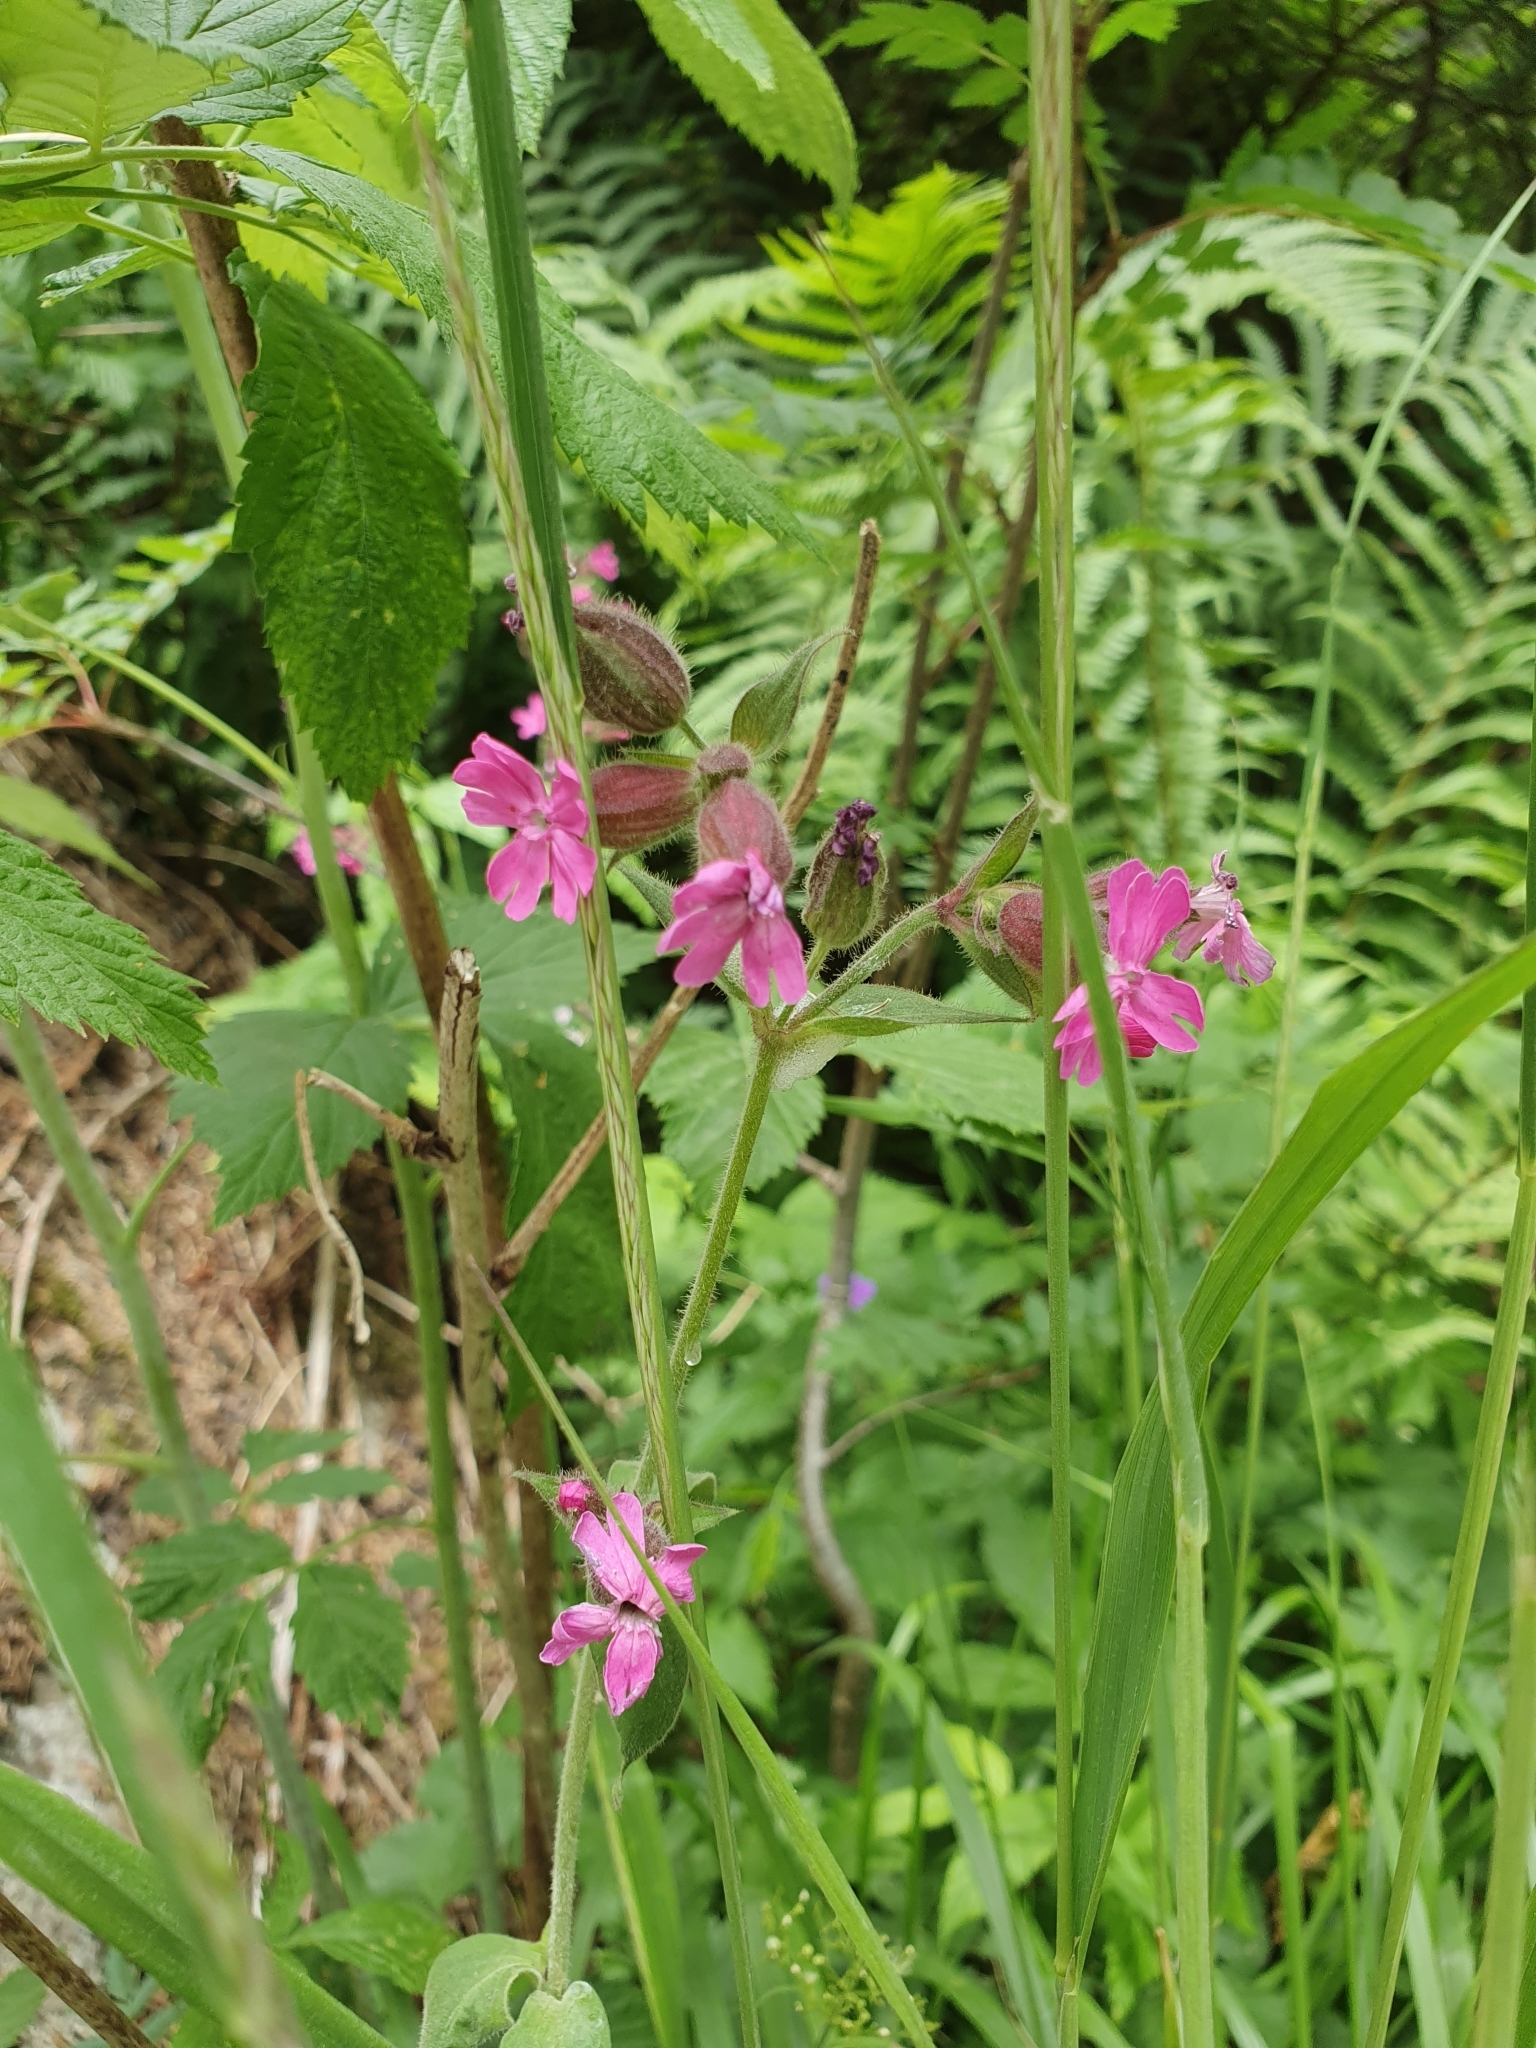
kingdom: Plantae
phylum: Tracheophyta
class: Magnoliopsida
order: Caryophyllales
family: Caryophyllaceae
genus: Silene
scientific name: Silene dioica
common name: Red campion
